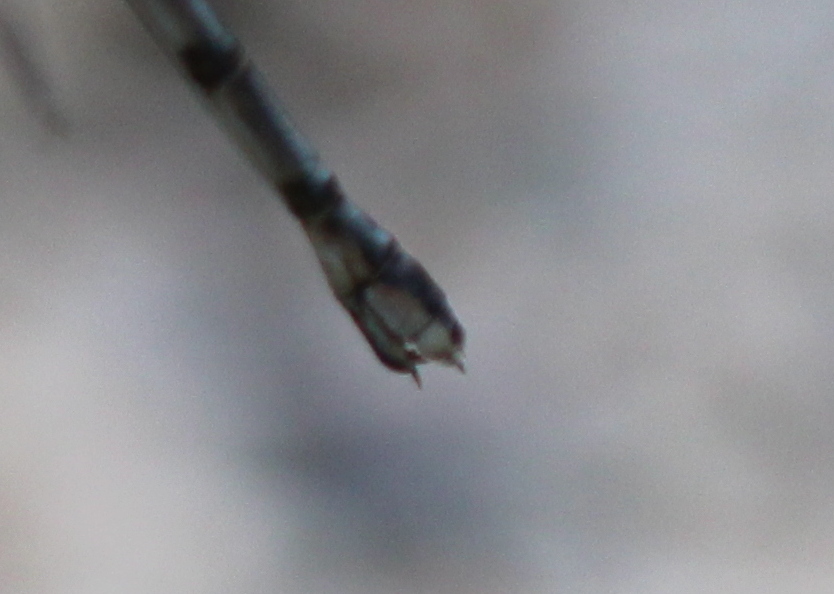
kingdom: Animalia
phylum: Arthropoda
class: Insecta
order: Odonata
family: Lestidae
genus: Lestes
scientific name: Lestes congener
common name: Spotted spreadwing
